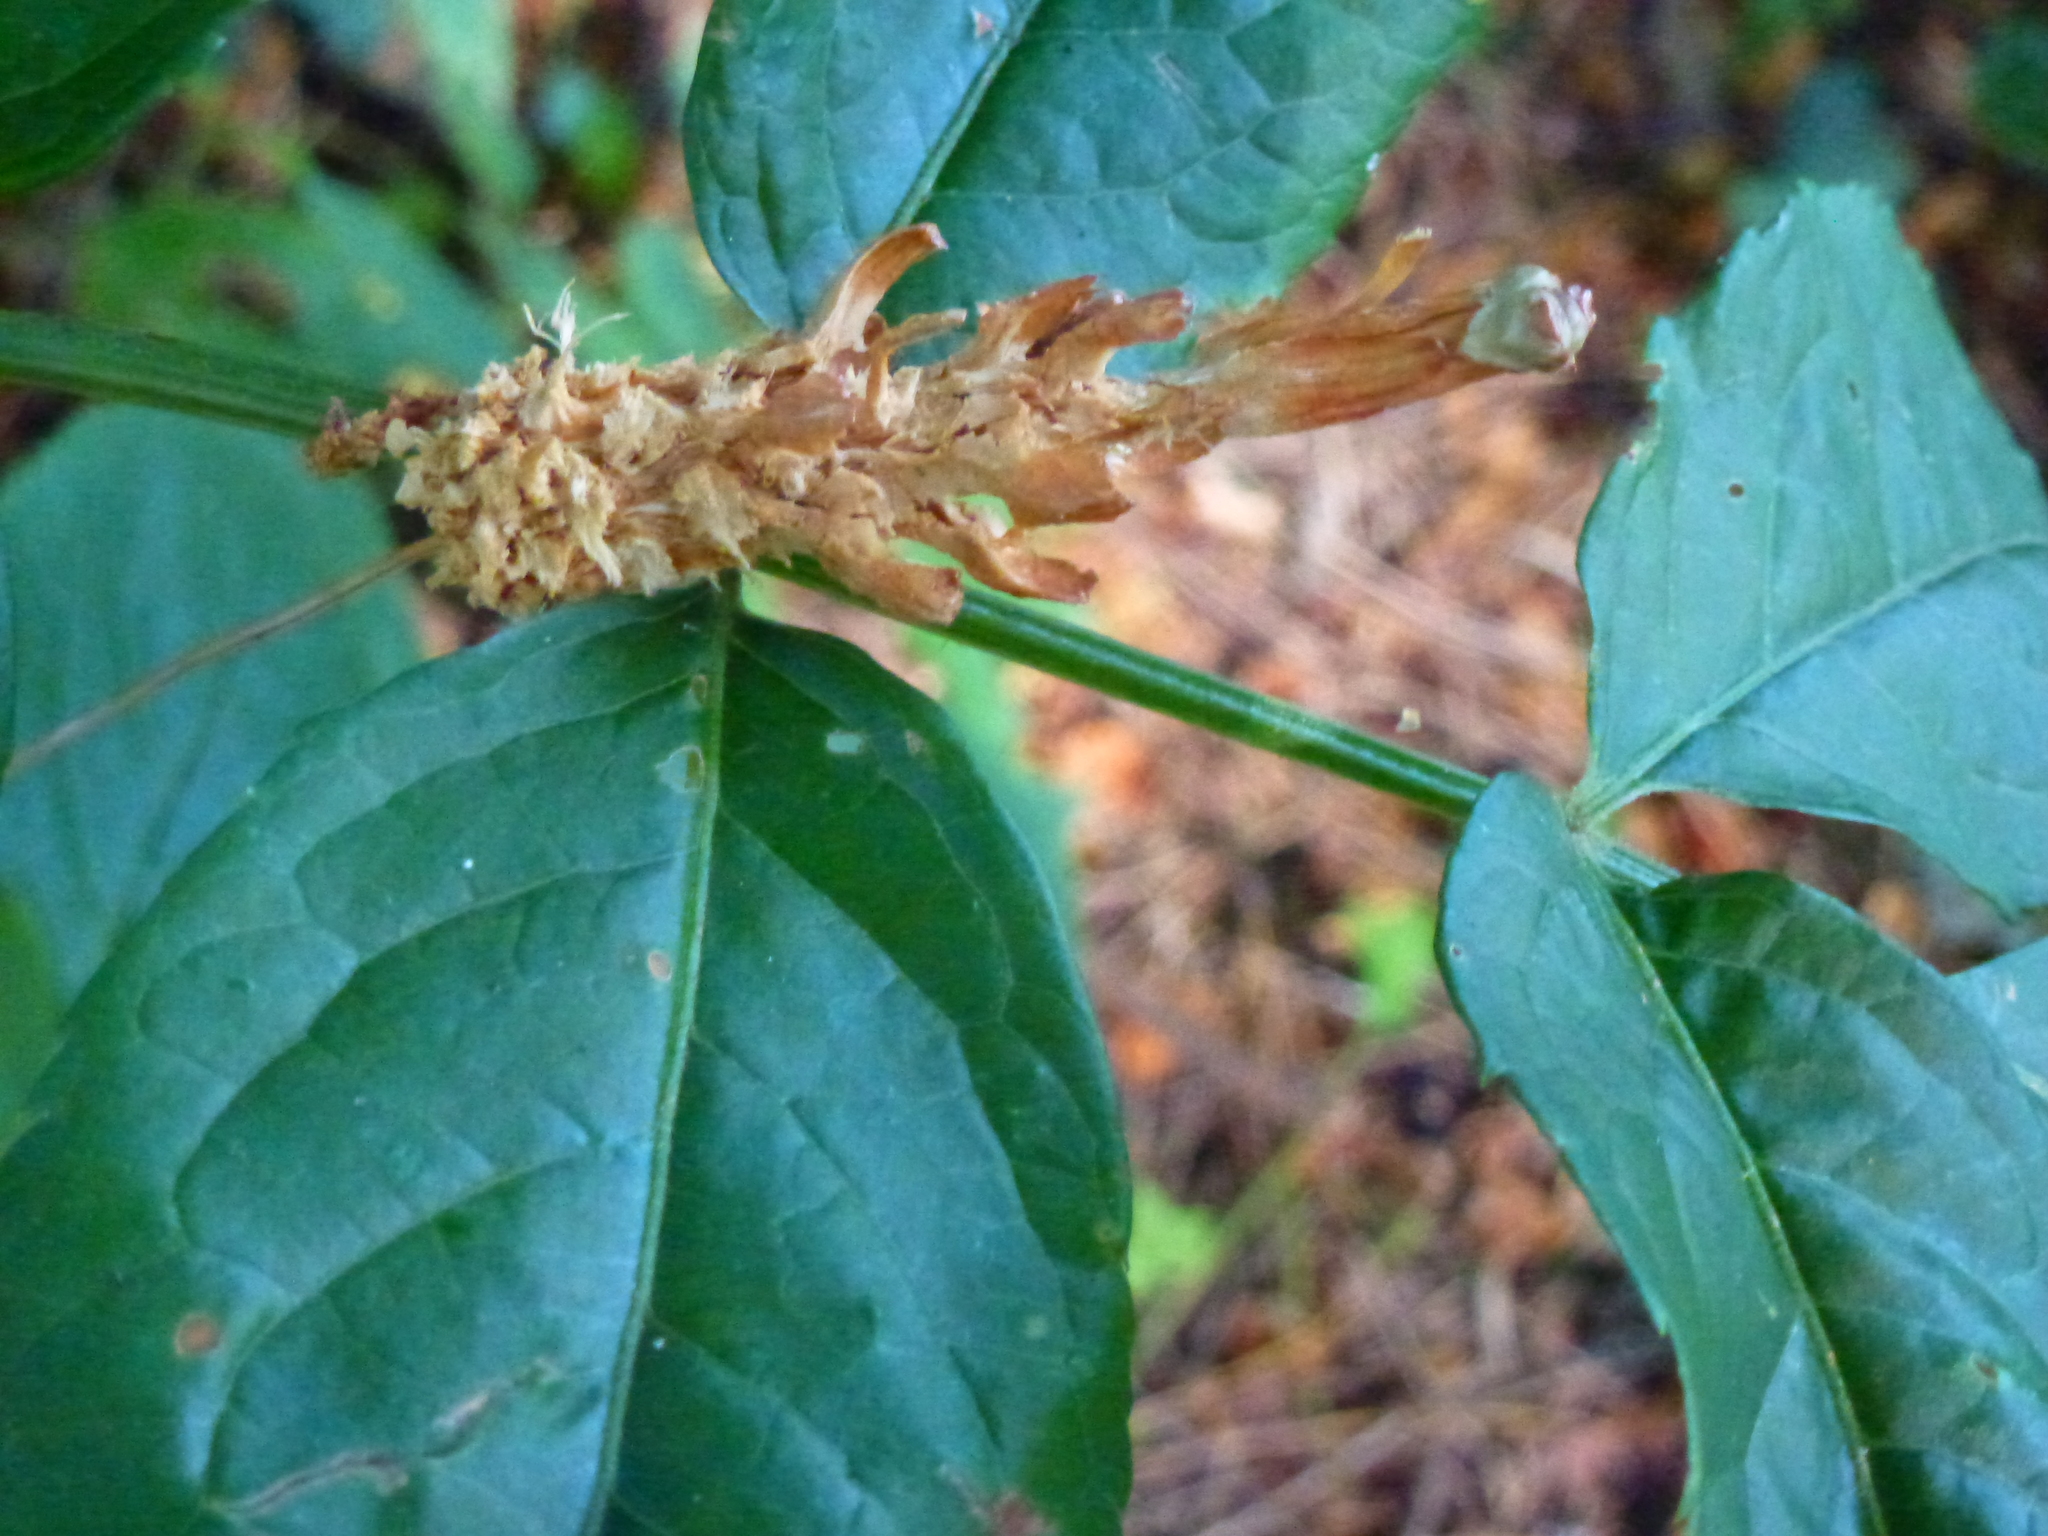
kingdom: Animalia
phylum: Chordata
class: Mammalia
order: Rodentia
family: Sciuridae
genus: Sciurus
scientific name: Sciurus carolinensis
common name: Eastern gray squirrel
